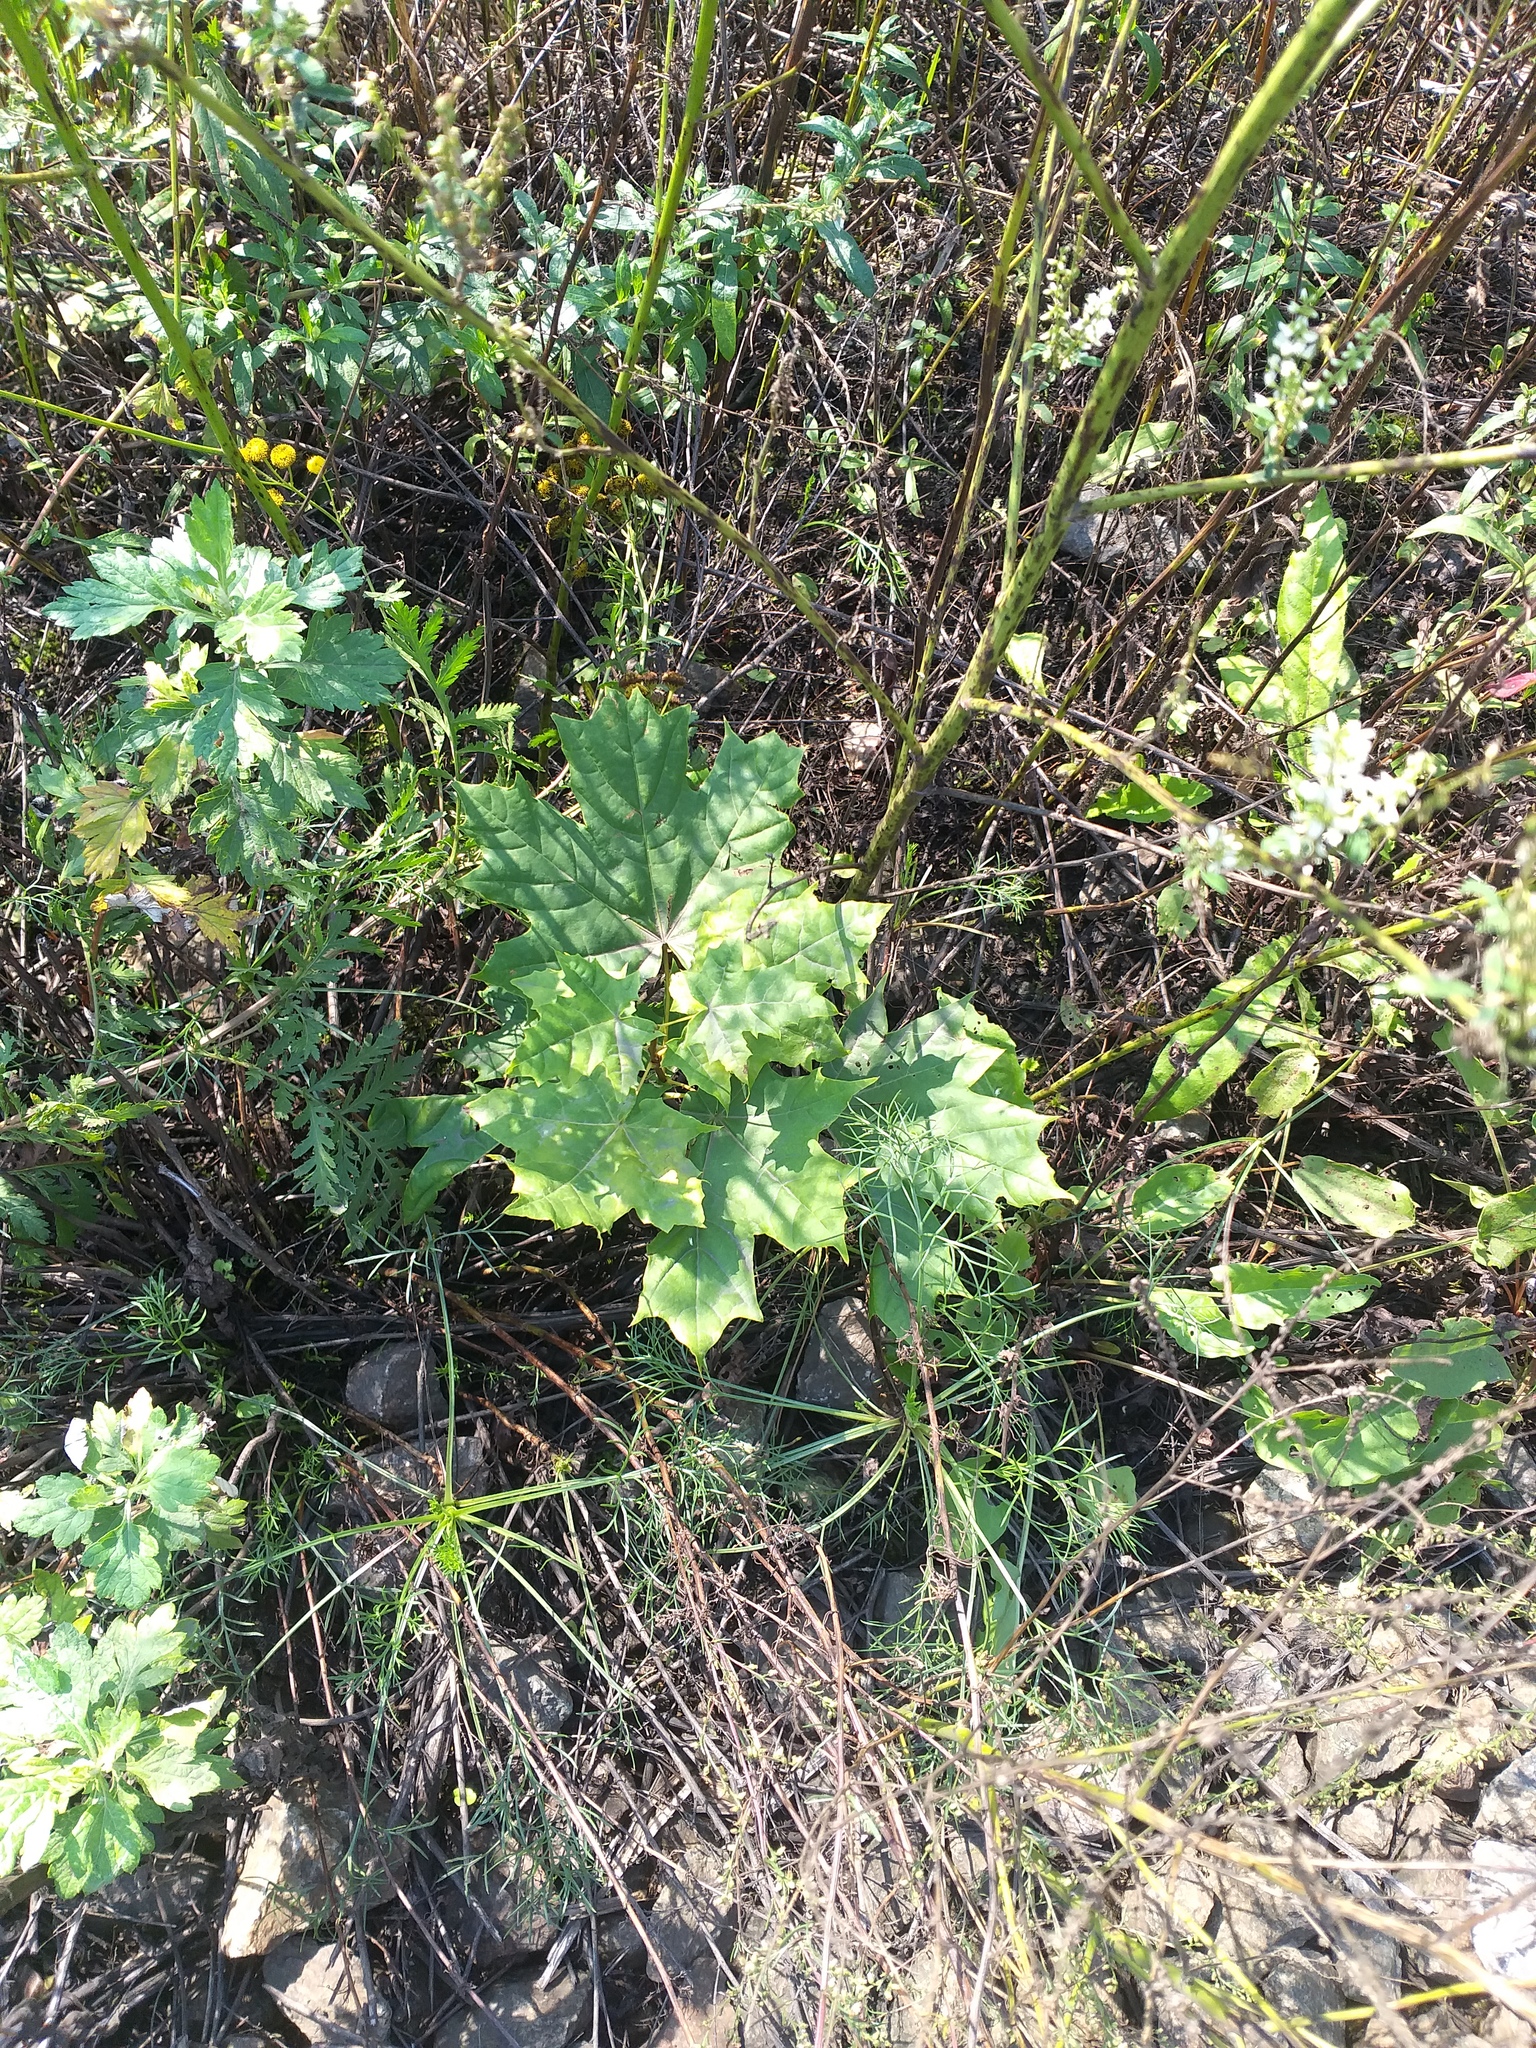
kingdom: Plantae
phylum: Tracheophyta
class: Magnoliopsida
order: Sapindales
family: Sapindaceae
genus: Acer
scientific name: Acer platanoides
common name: Norway maple
